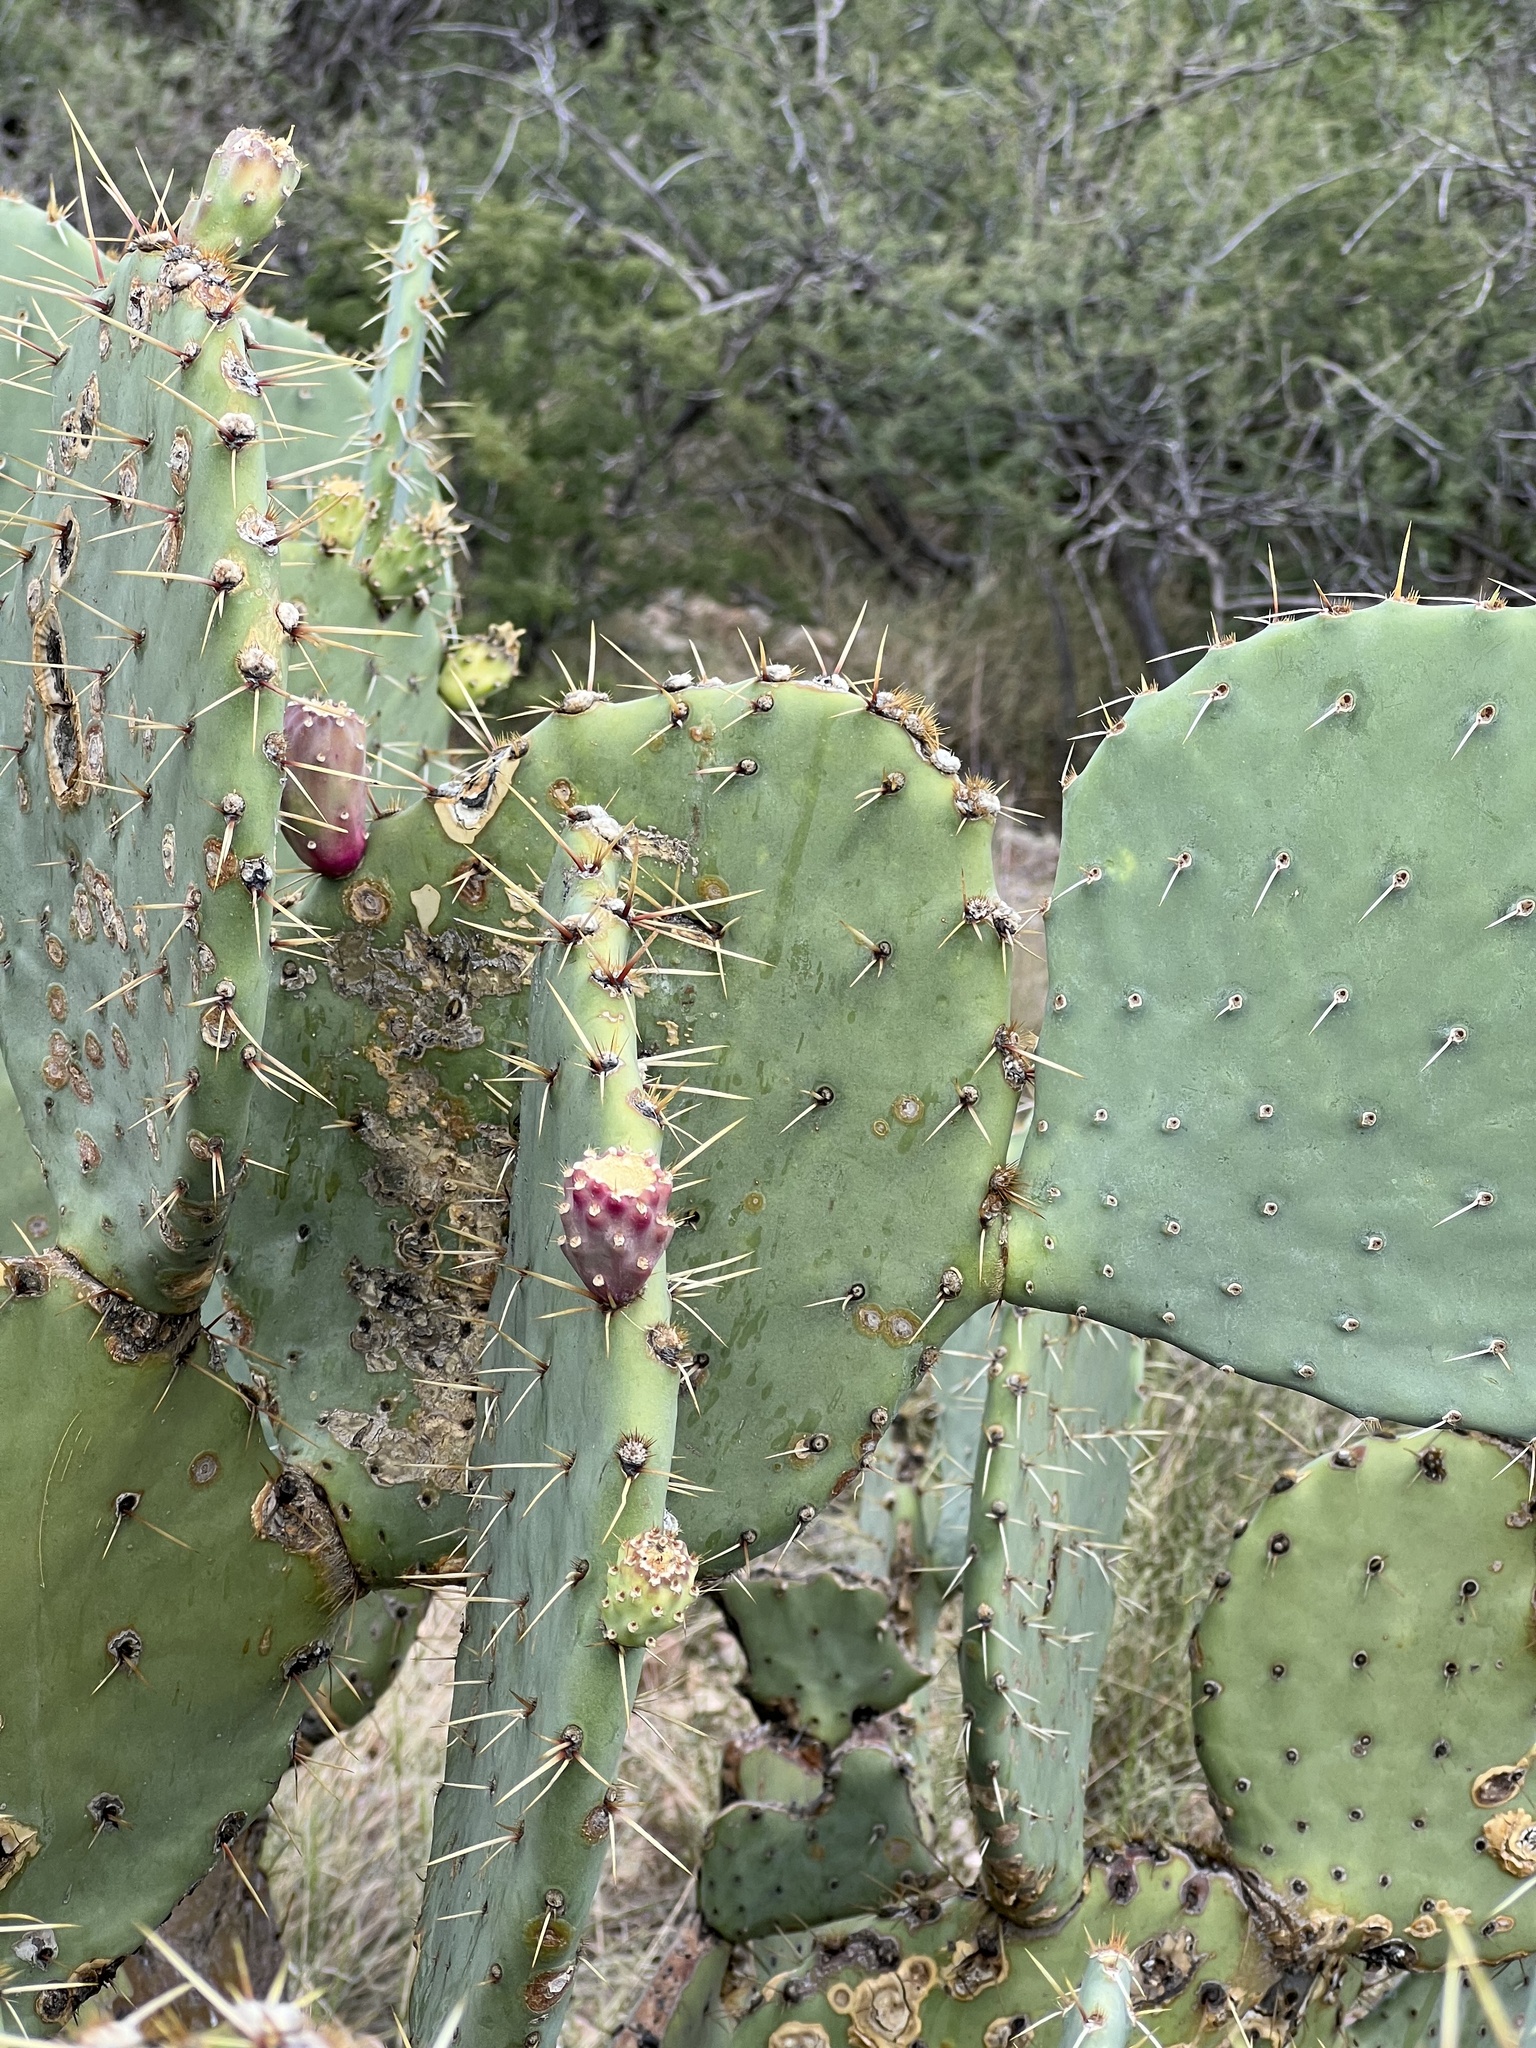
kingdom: Plantae
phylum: Tracheophyta
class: Magnoliopsida
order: Caryophyllales
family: Cactaceae
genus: Opuntia
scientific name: Opuntia engelmannii
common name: Cactus-apple
